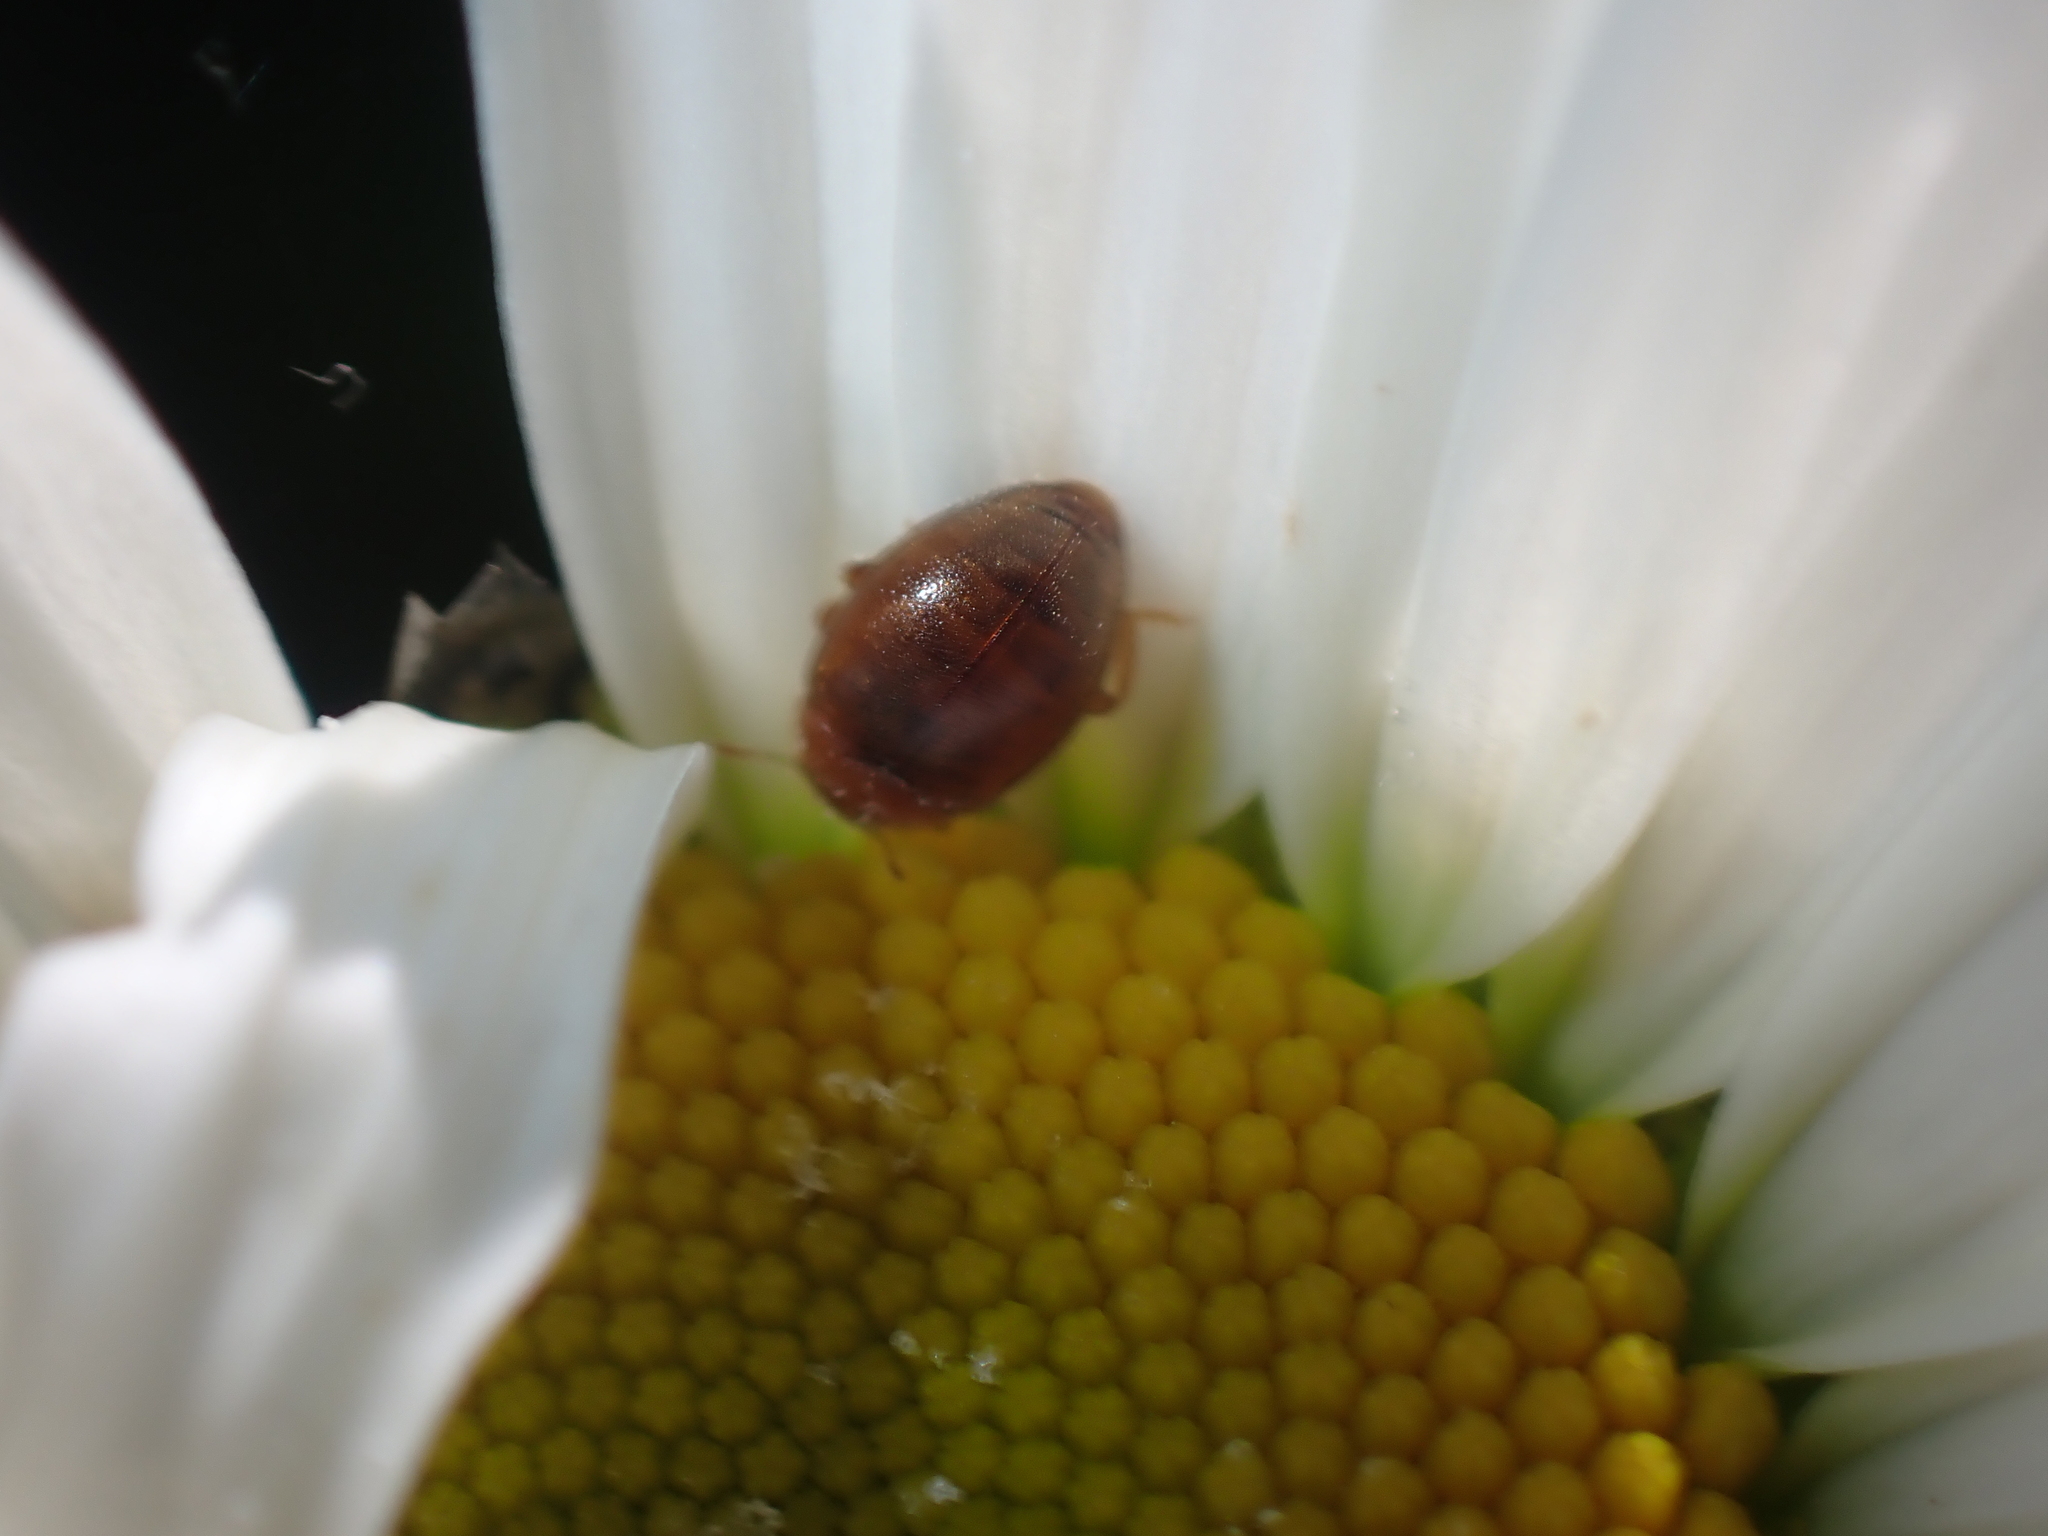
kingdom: Animalia
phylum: Arthropoda
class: Insecta
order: Coleoptera
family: Coccinellidae
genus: Rhyzobius
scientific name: Rhyzobius litura
